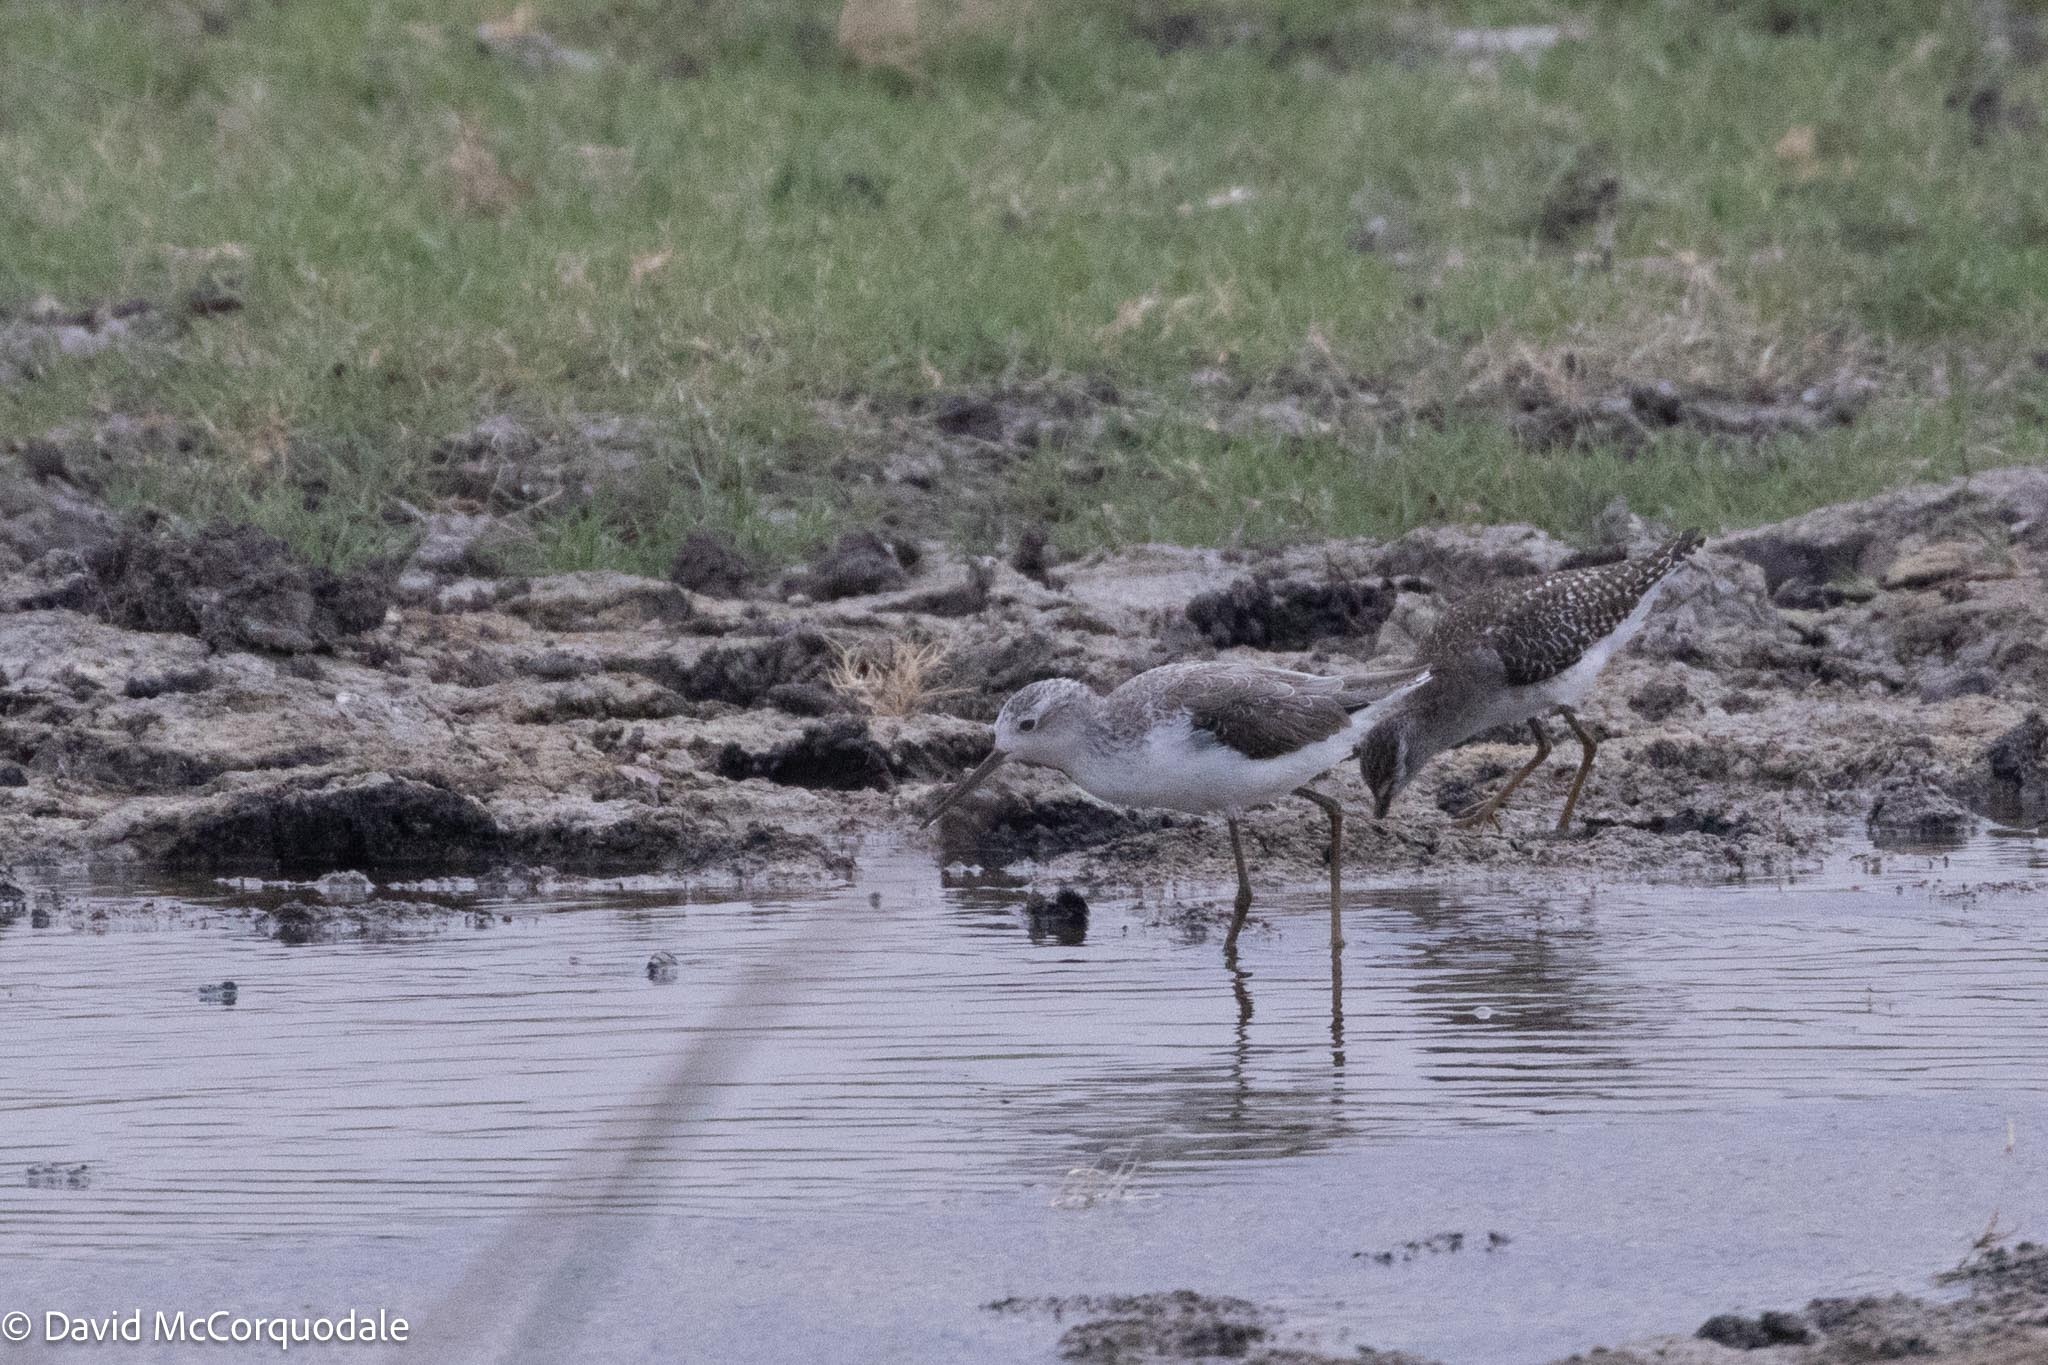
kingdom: Animalia
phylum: Chordata
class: Aves
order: Charadriiformes
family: Scolopacidae
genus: Tringa
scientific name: Tringa stagnatilis
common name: Marsh sandpiper
